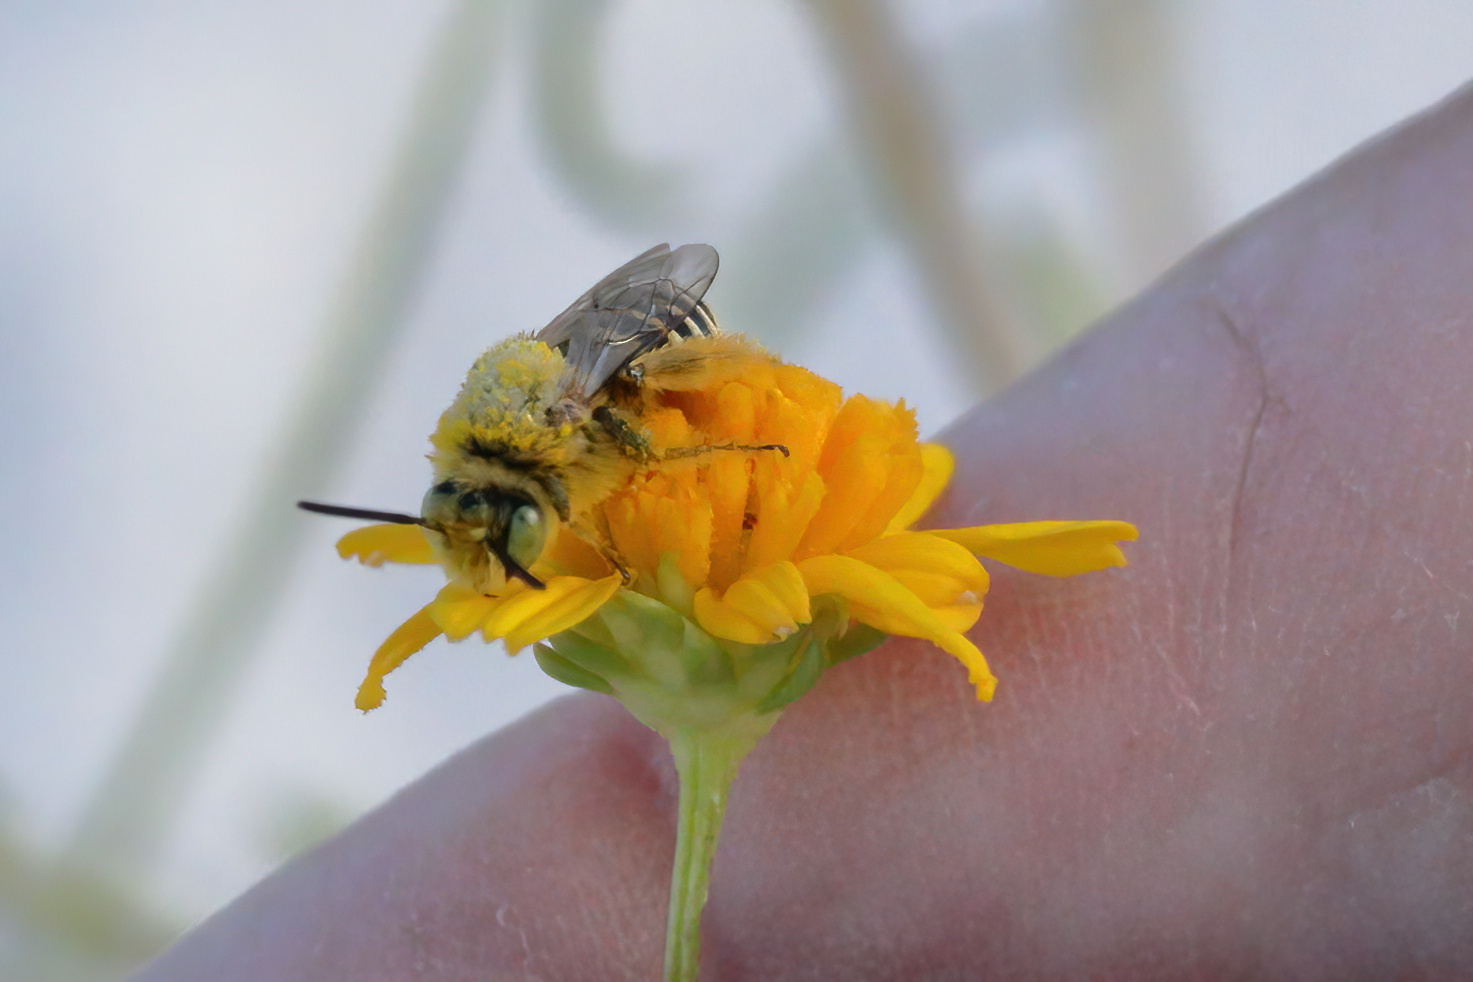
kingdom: Animalia
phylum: Arthropoda
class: Insecta
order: Hymenoptera
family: Melittidae
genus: Hesperapis
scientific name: Hesperapis oraria
